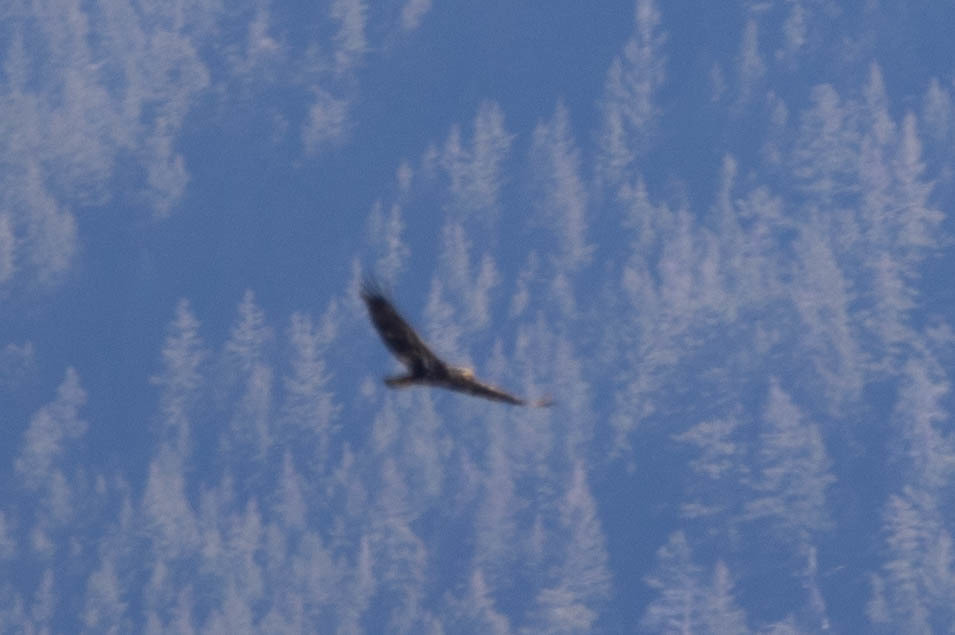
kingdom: Animalia
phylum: Chordata
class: Aves
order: Accipitriformes
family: Accipitridae
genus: Haliaeetus
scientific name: Haliaeetus leucocephalus
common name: Bald eagle
